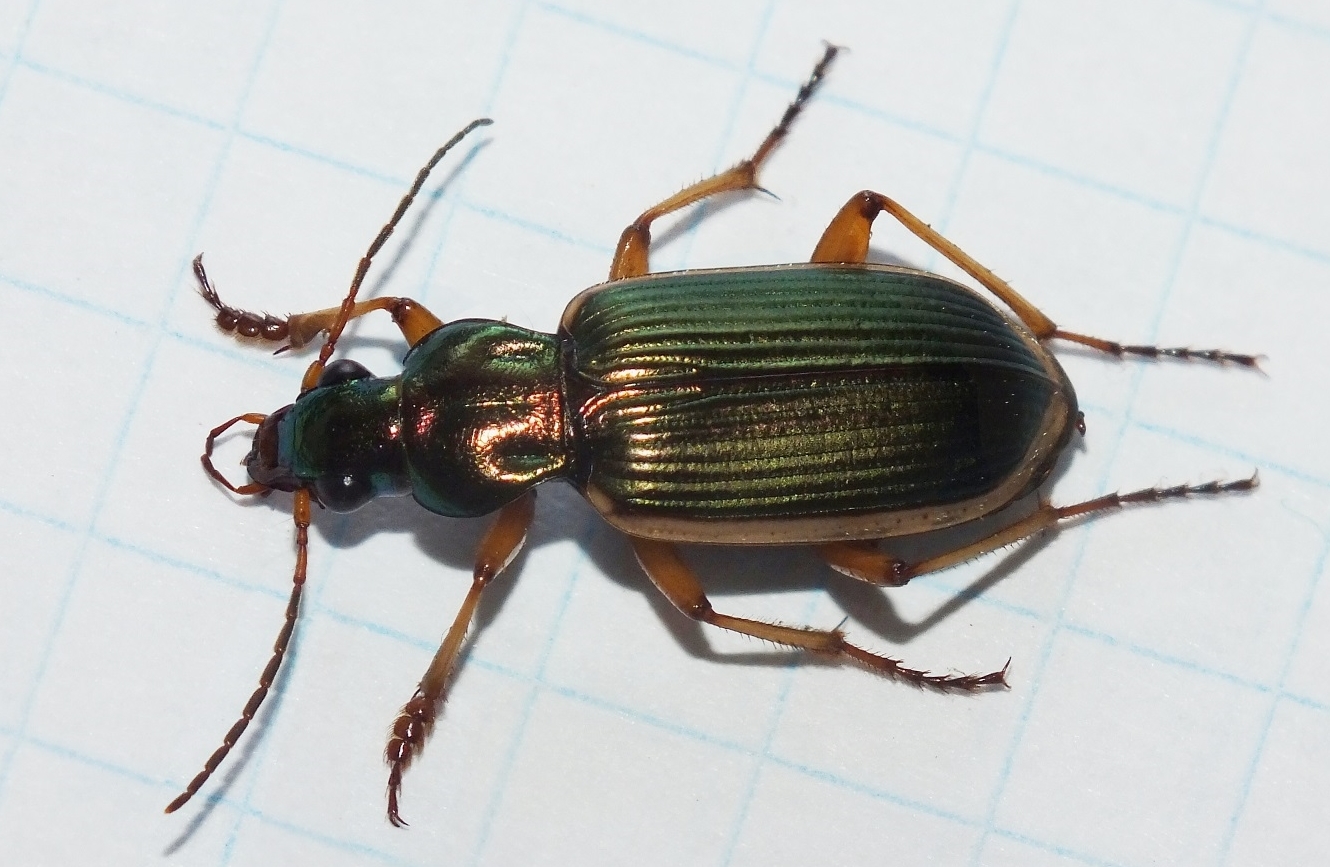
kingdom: Animalia
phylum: Arthropoda
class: Insecta
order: Coleoptera
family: Carabidae
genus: Chlaenius
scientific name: Chlaenius spoliatus
